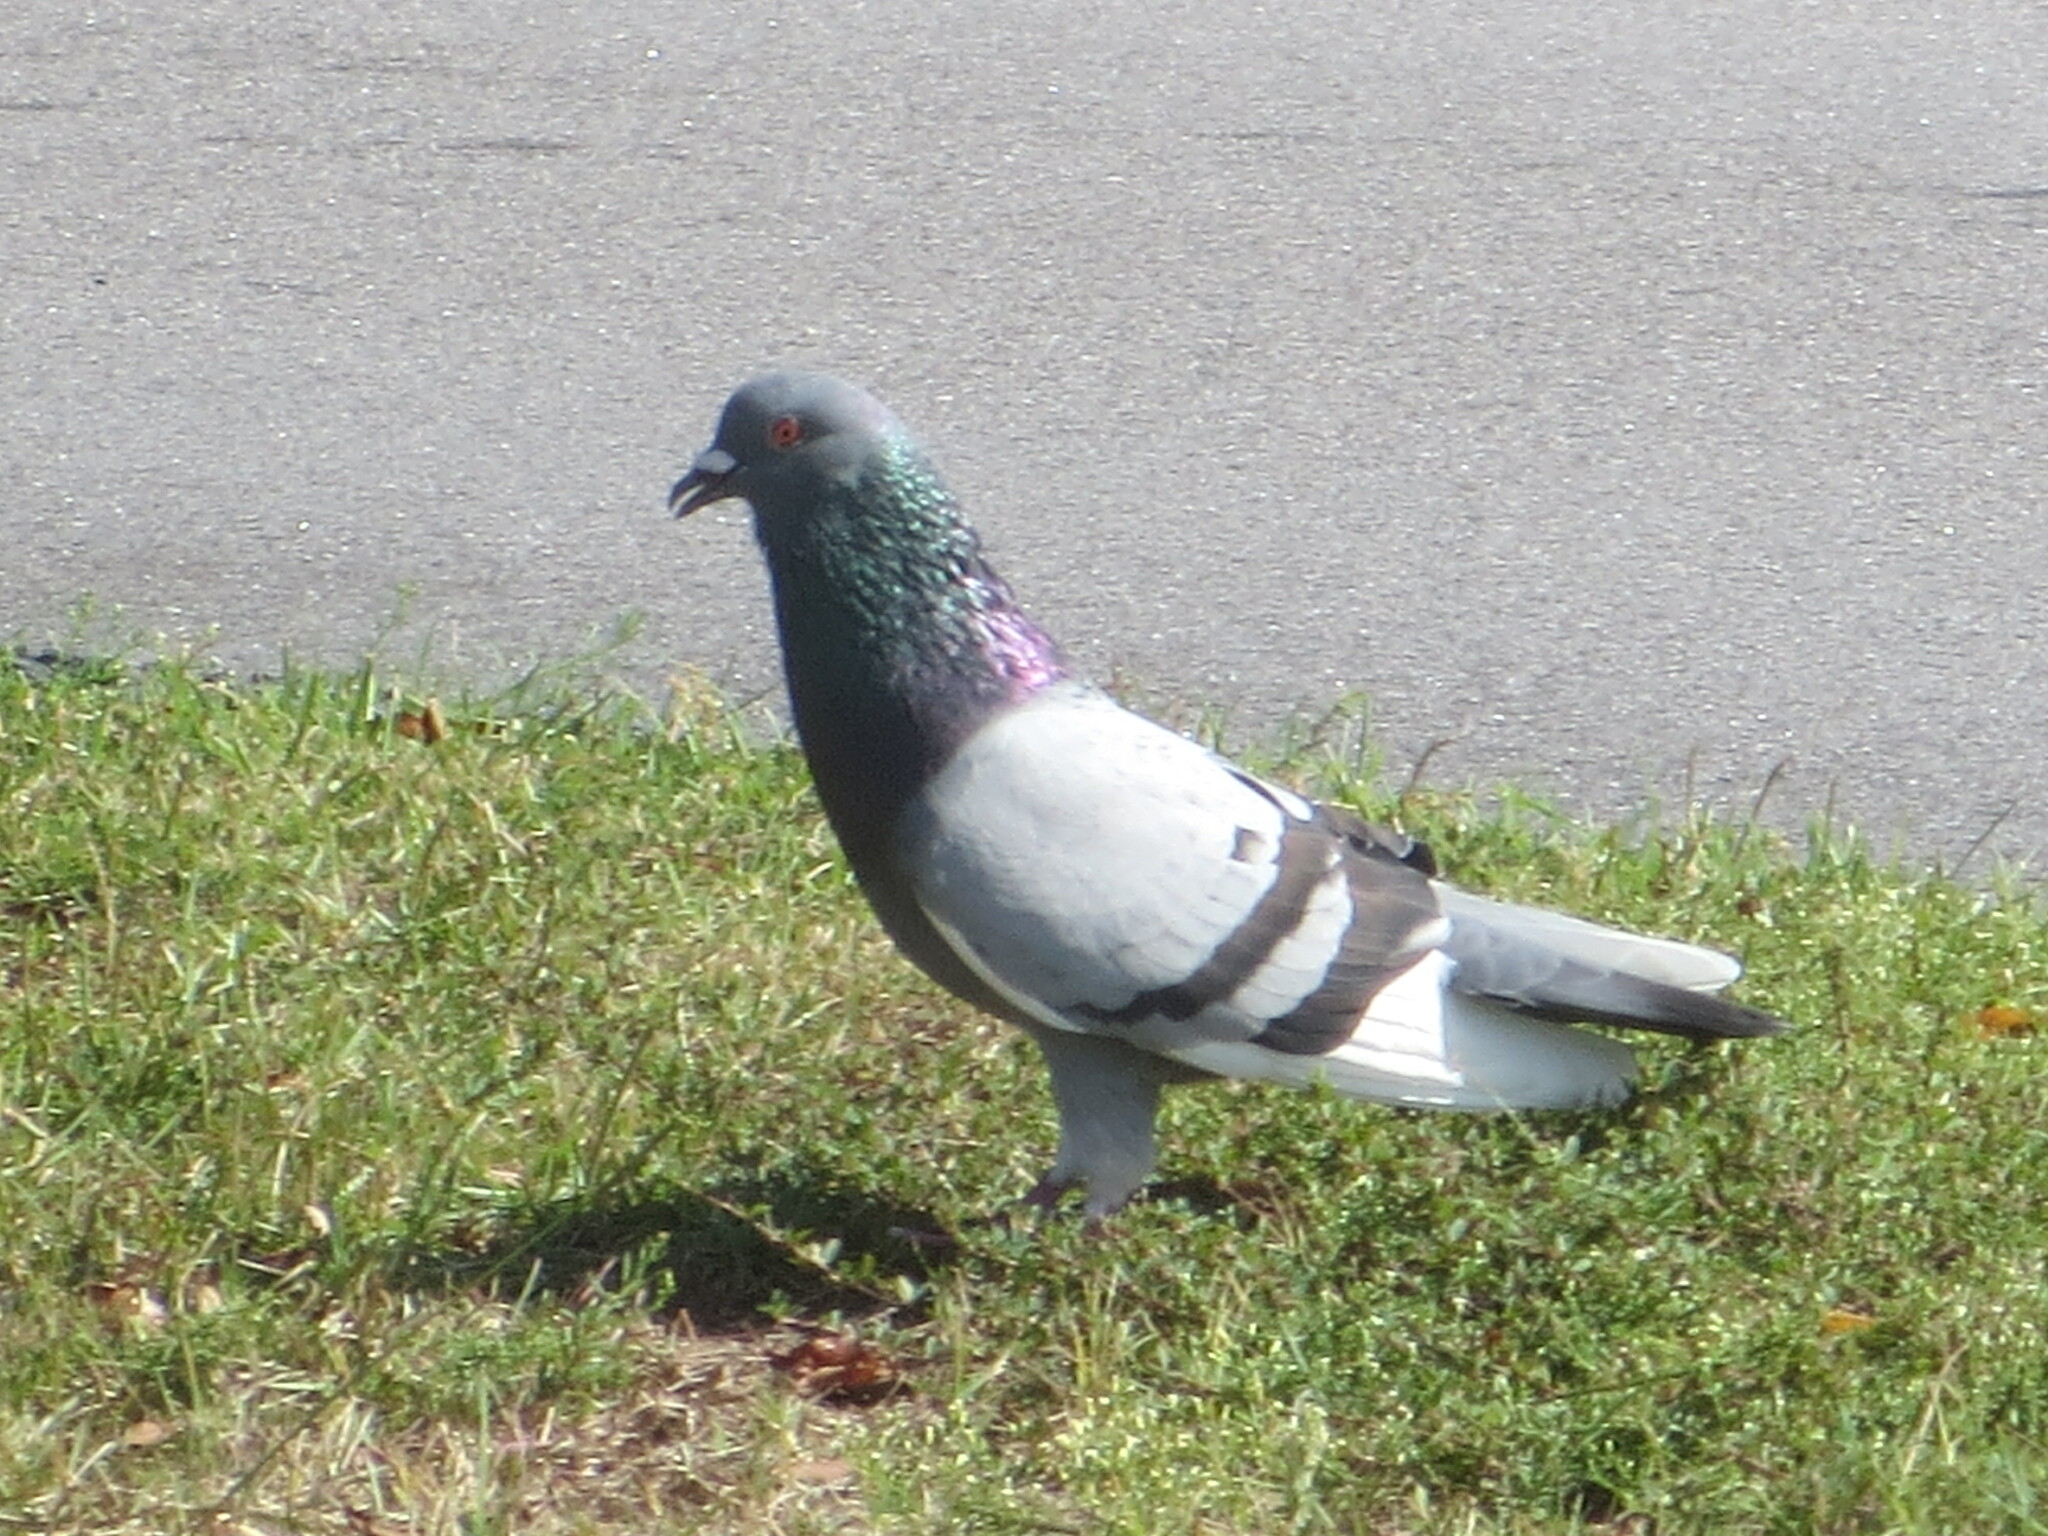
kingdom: Animalia
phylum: Chordata
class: Aves
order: Columbiformes
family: Columbidae
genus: Columba
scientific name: Columba livia
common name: Rock pigeon
